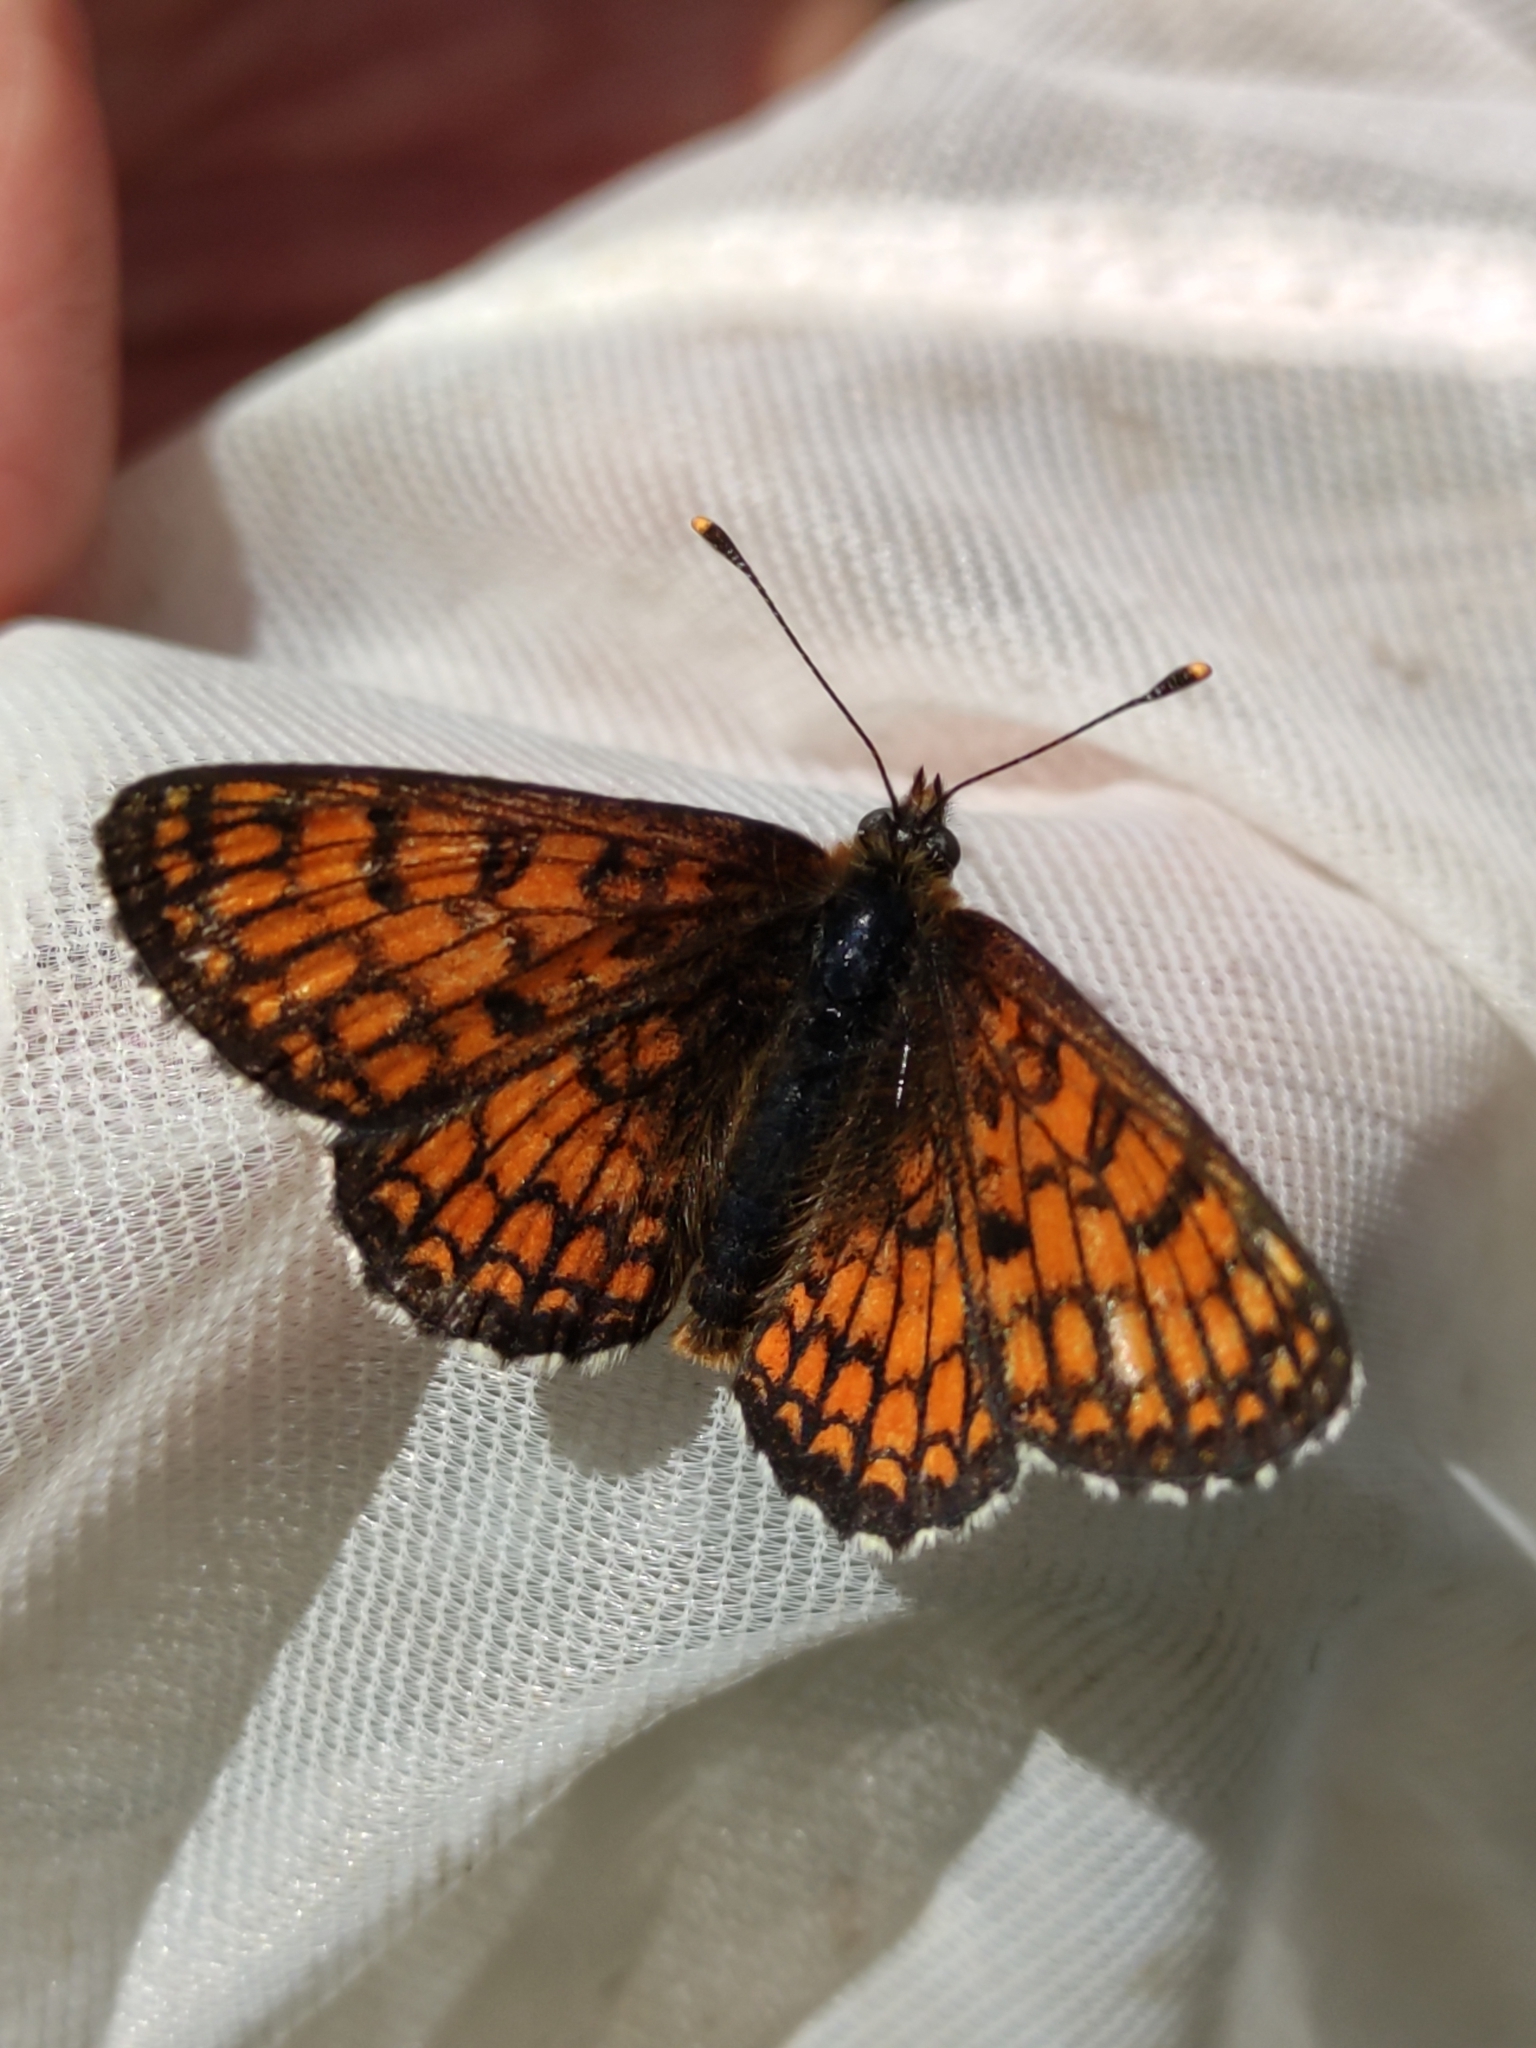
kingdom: Animalia
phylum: Arthropoda
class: Insecta
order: Lepidoptera
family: Nymphalidae
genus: Mellicta
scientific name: Mellicta parthenoides
